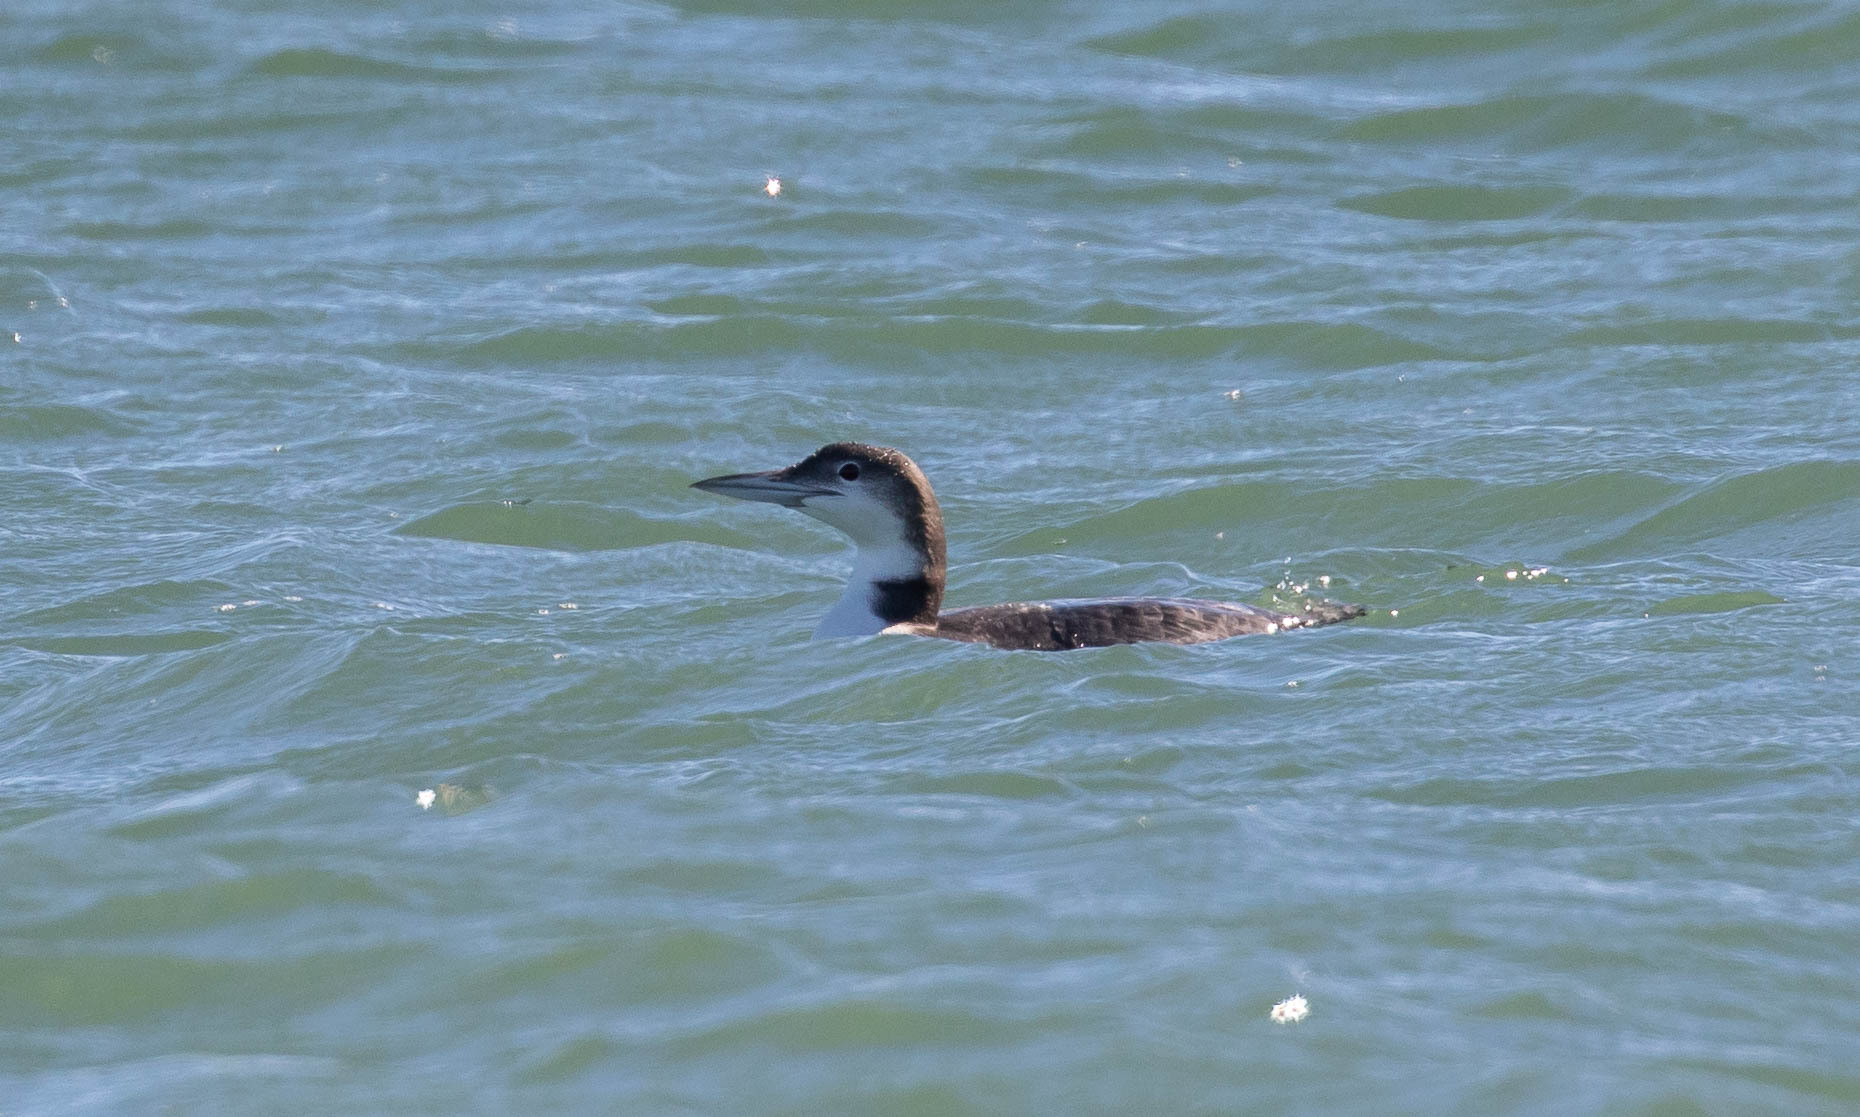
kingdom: Animalia
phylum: Chordata
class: Aves
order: Gaviiformes
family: Gaviidae
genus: Gavia
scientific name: Gavia immer
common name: Common loon
